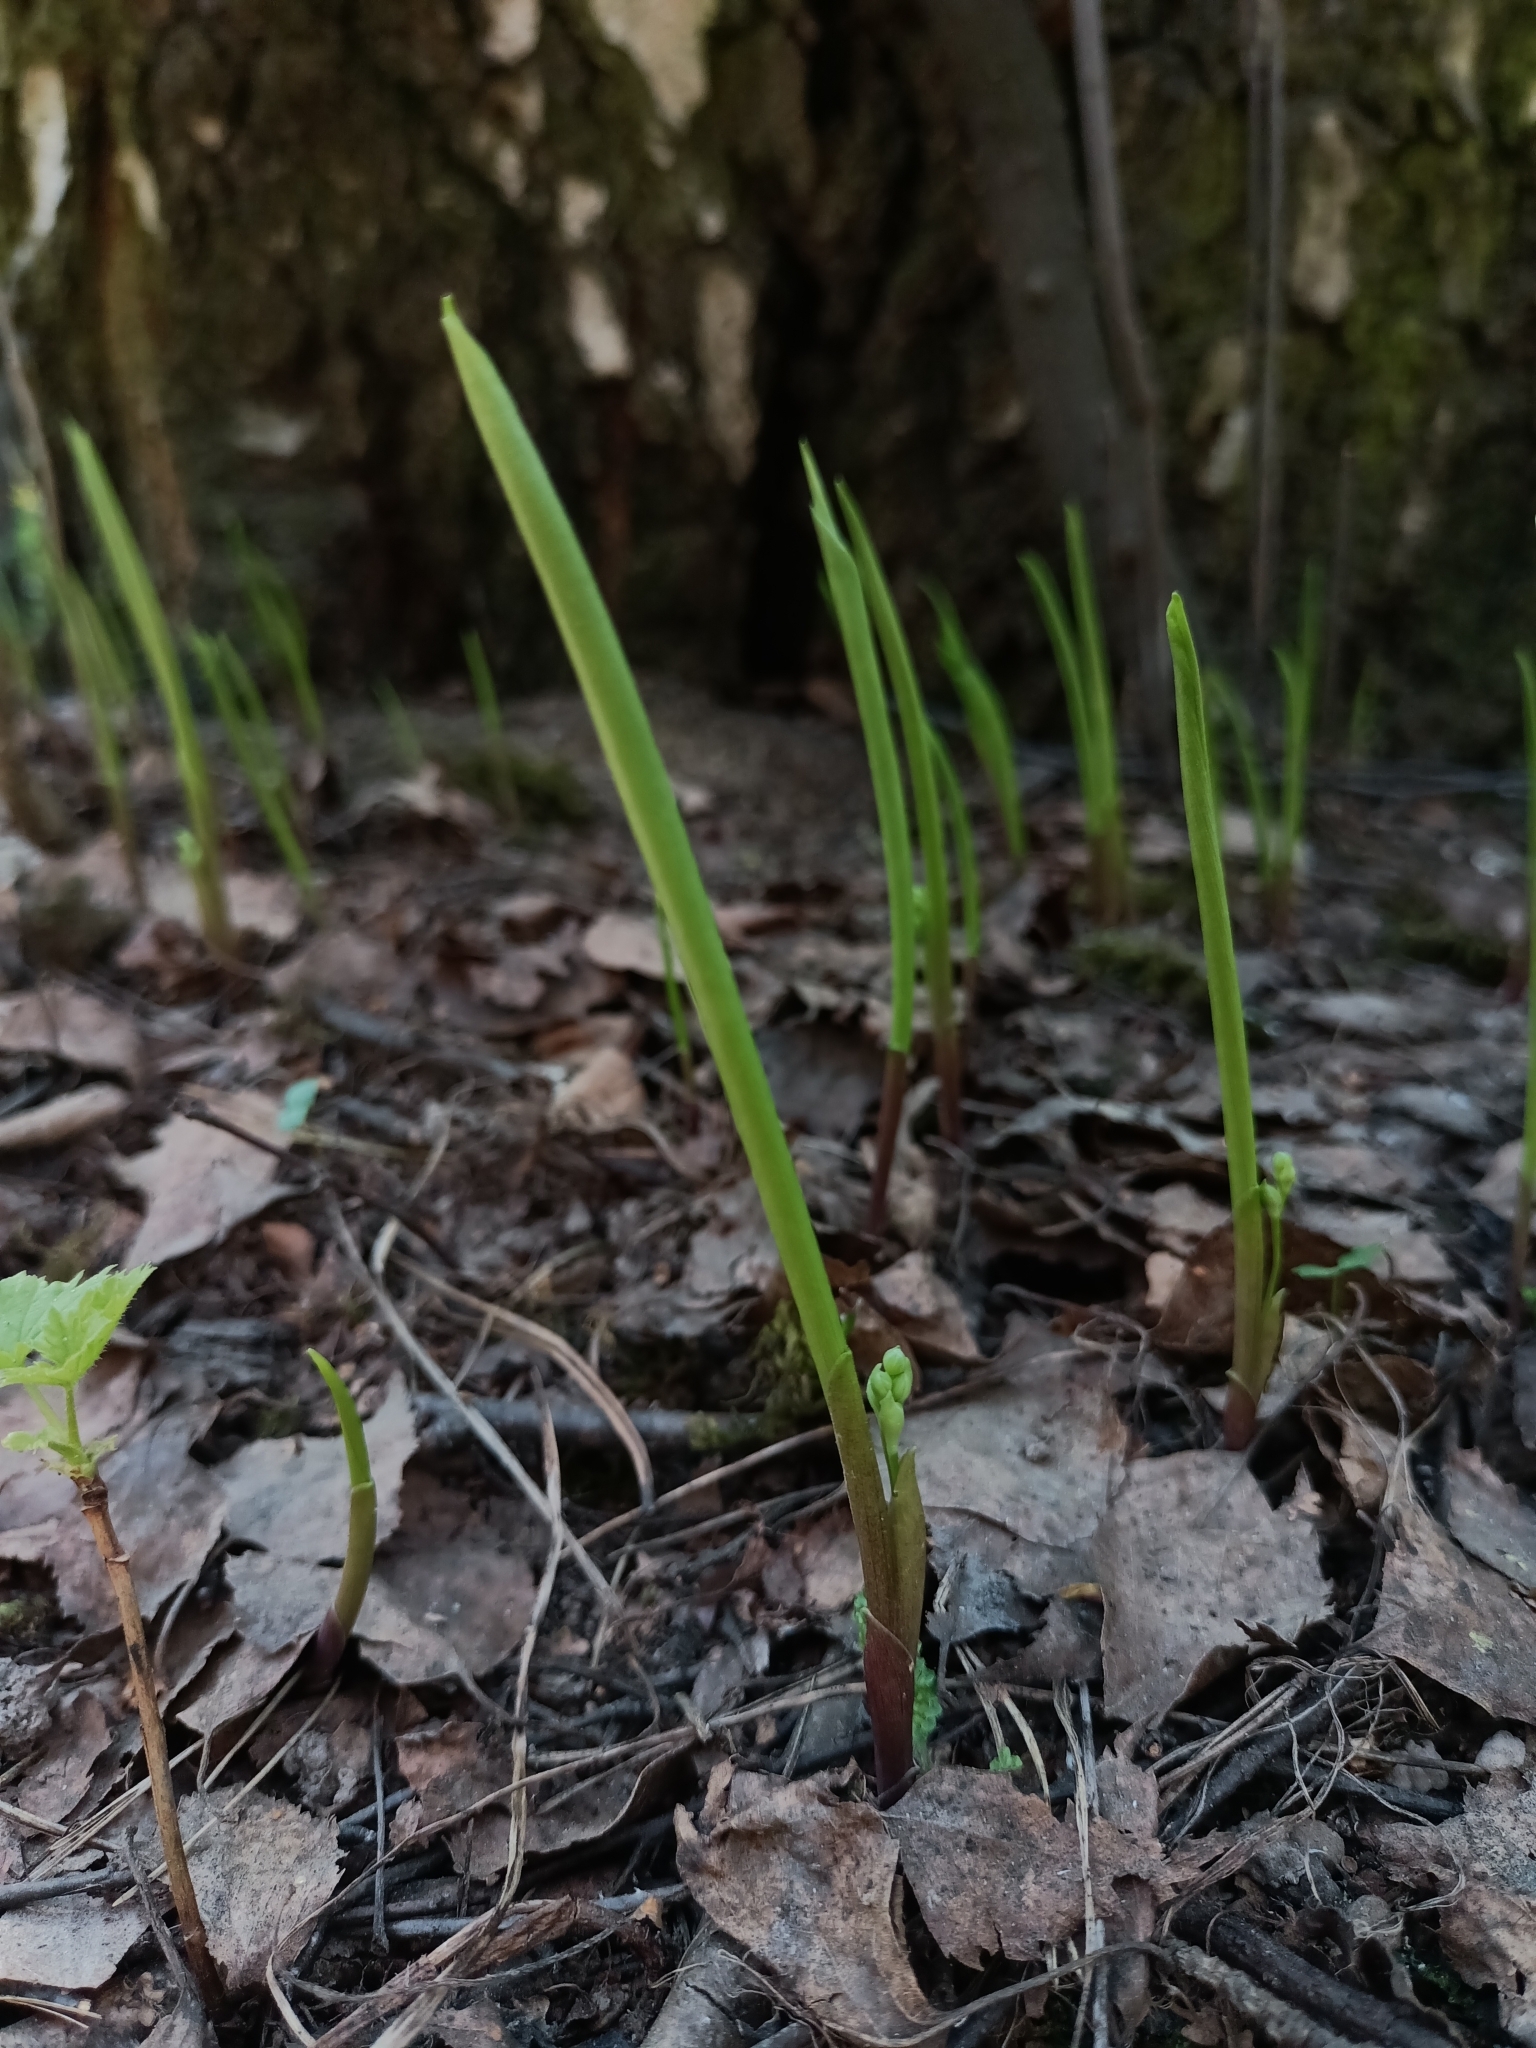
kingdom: Plantae
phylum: Tracheophyta
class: Liliopsida
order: Asparagales
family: Asparagaceae
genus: Convallaria
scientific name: Convallaria majalis
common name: Lily-of-the-valley
